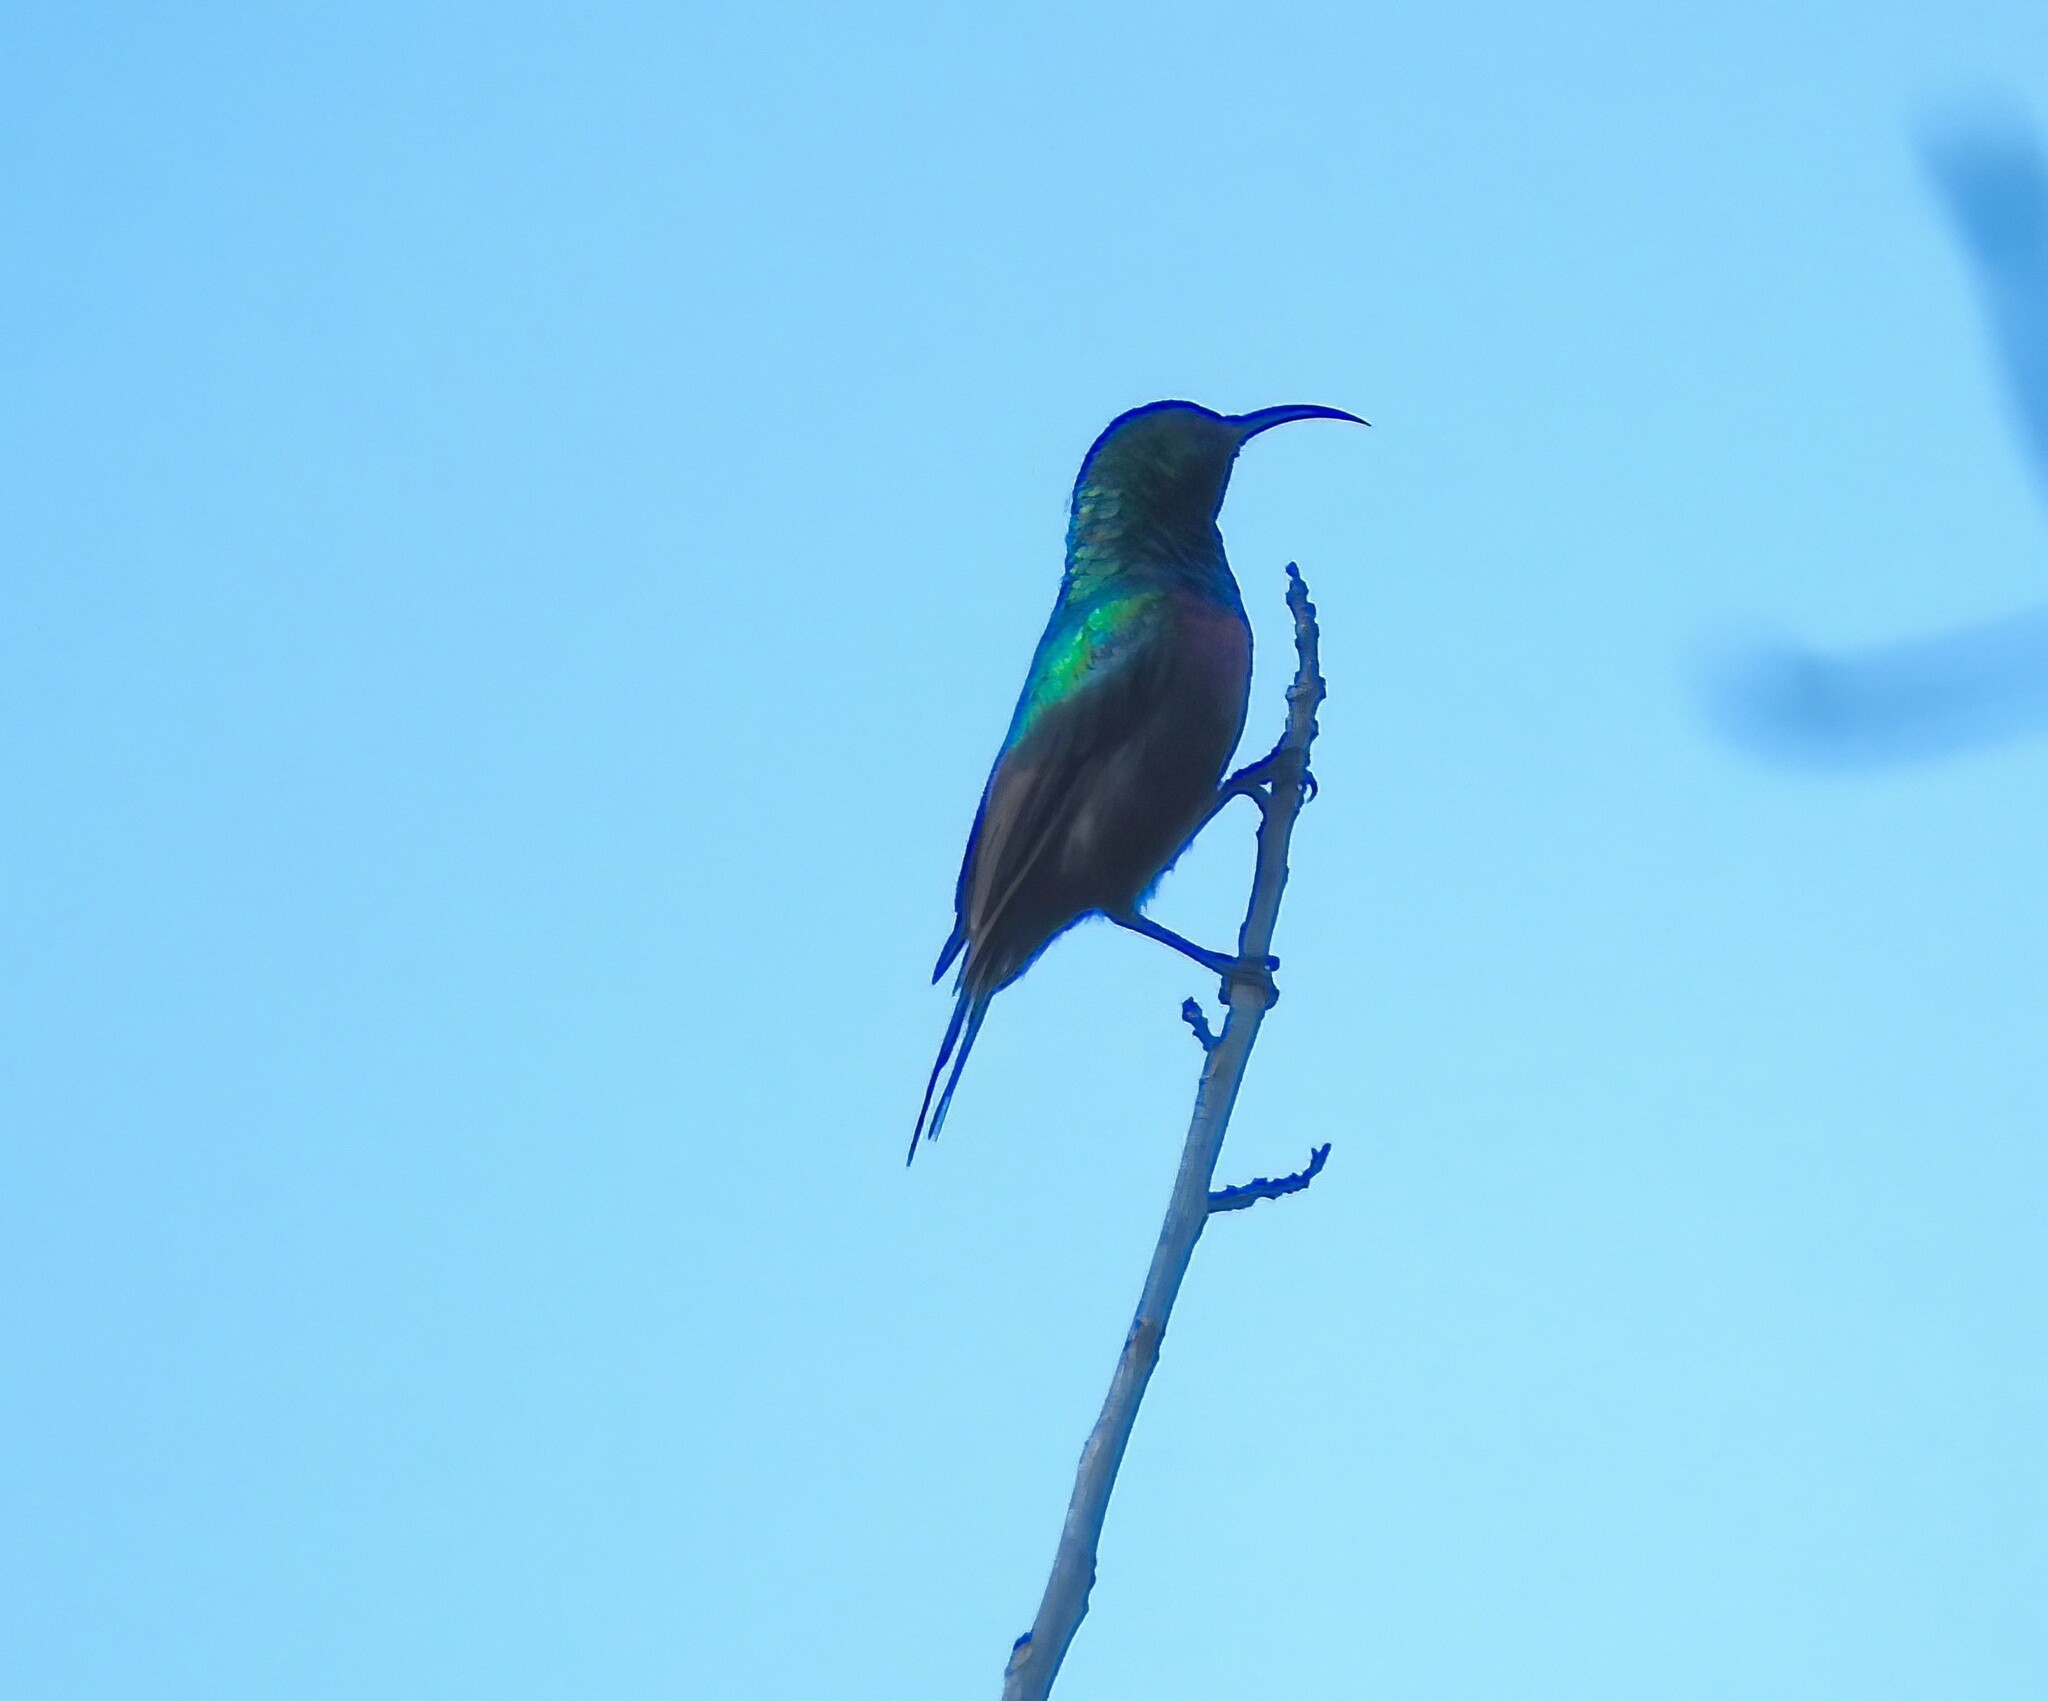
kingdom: Animalia
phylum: Chordata
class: Aves
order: Passeriformes
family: Nectariniidae
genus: Cinnyris
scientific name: Cinnyris mariquensis
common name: Marico sunbird
